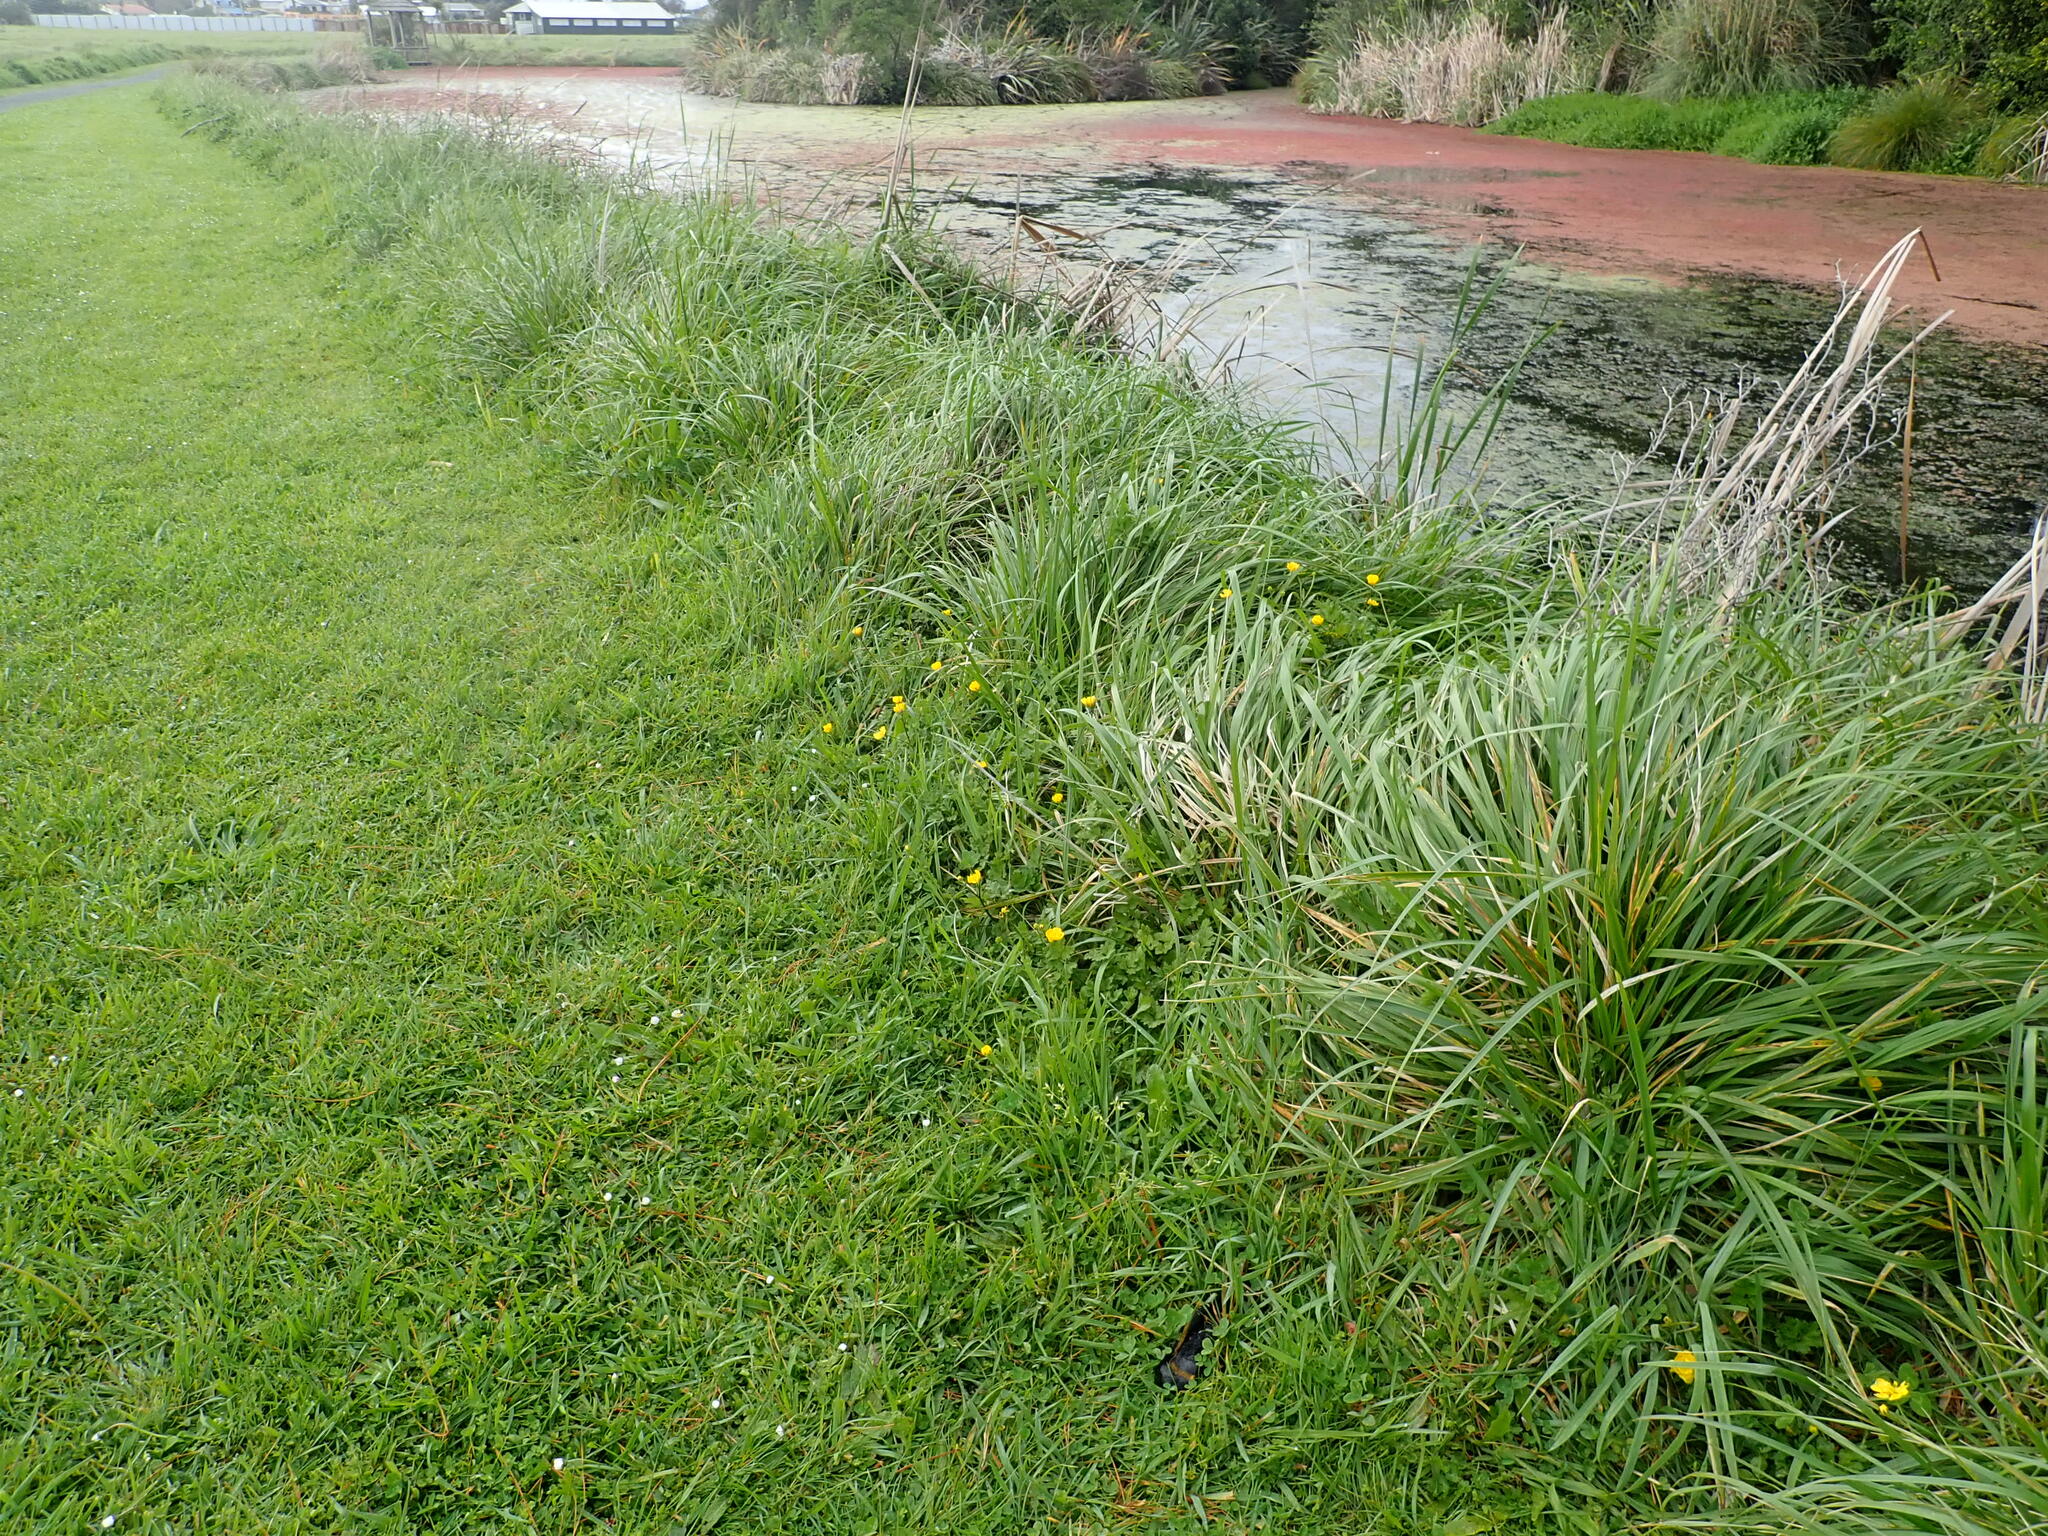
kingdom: Plantae
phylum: Tracheophyta
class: Magnoliopsida
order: Ranunculales
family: Ranunculaceae
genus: Ranunculus
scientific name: Ranunculus repens
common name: Creeping buttercup
